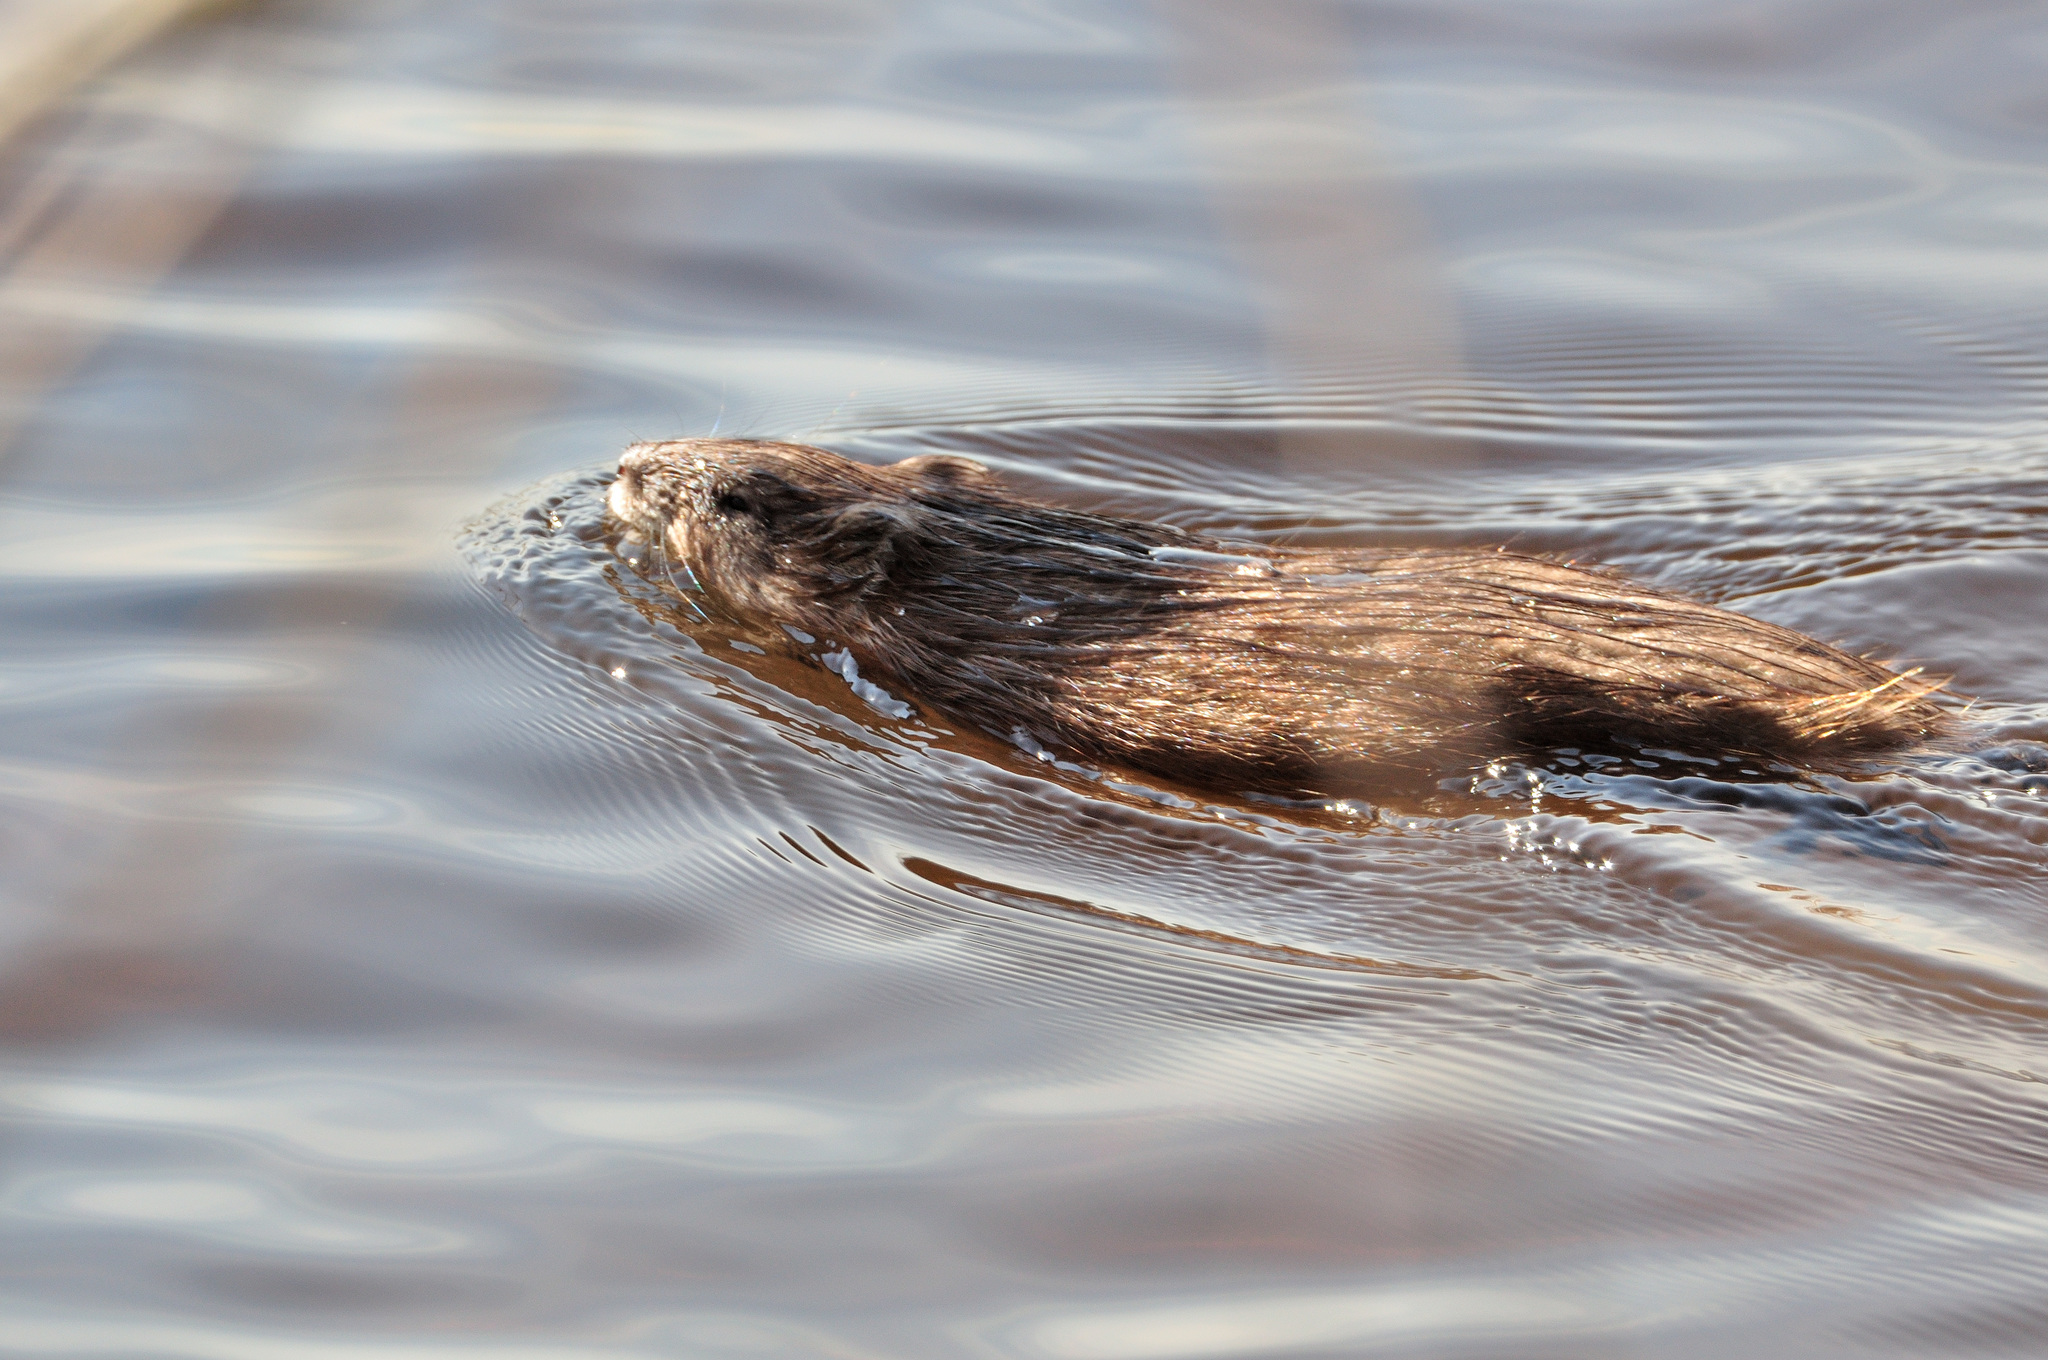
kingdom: Animalia
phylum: Chordata
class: Mammalia
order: Rodentia
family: Cricetidae
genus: Ondatra
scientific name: Ondatra zibethicus
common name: Muskrat
